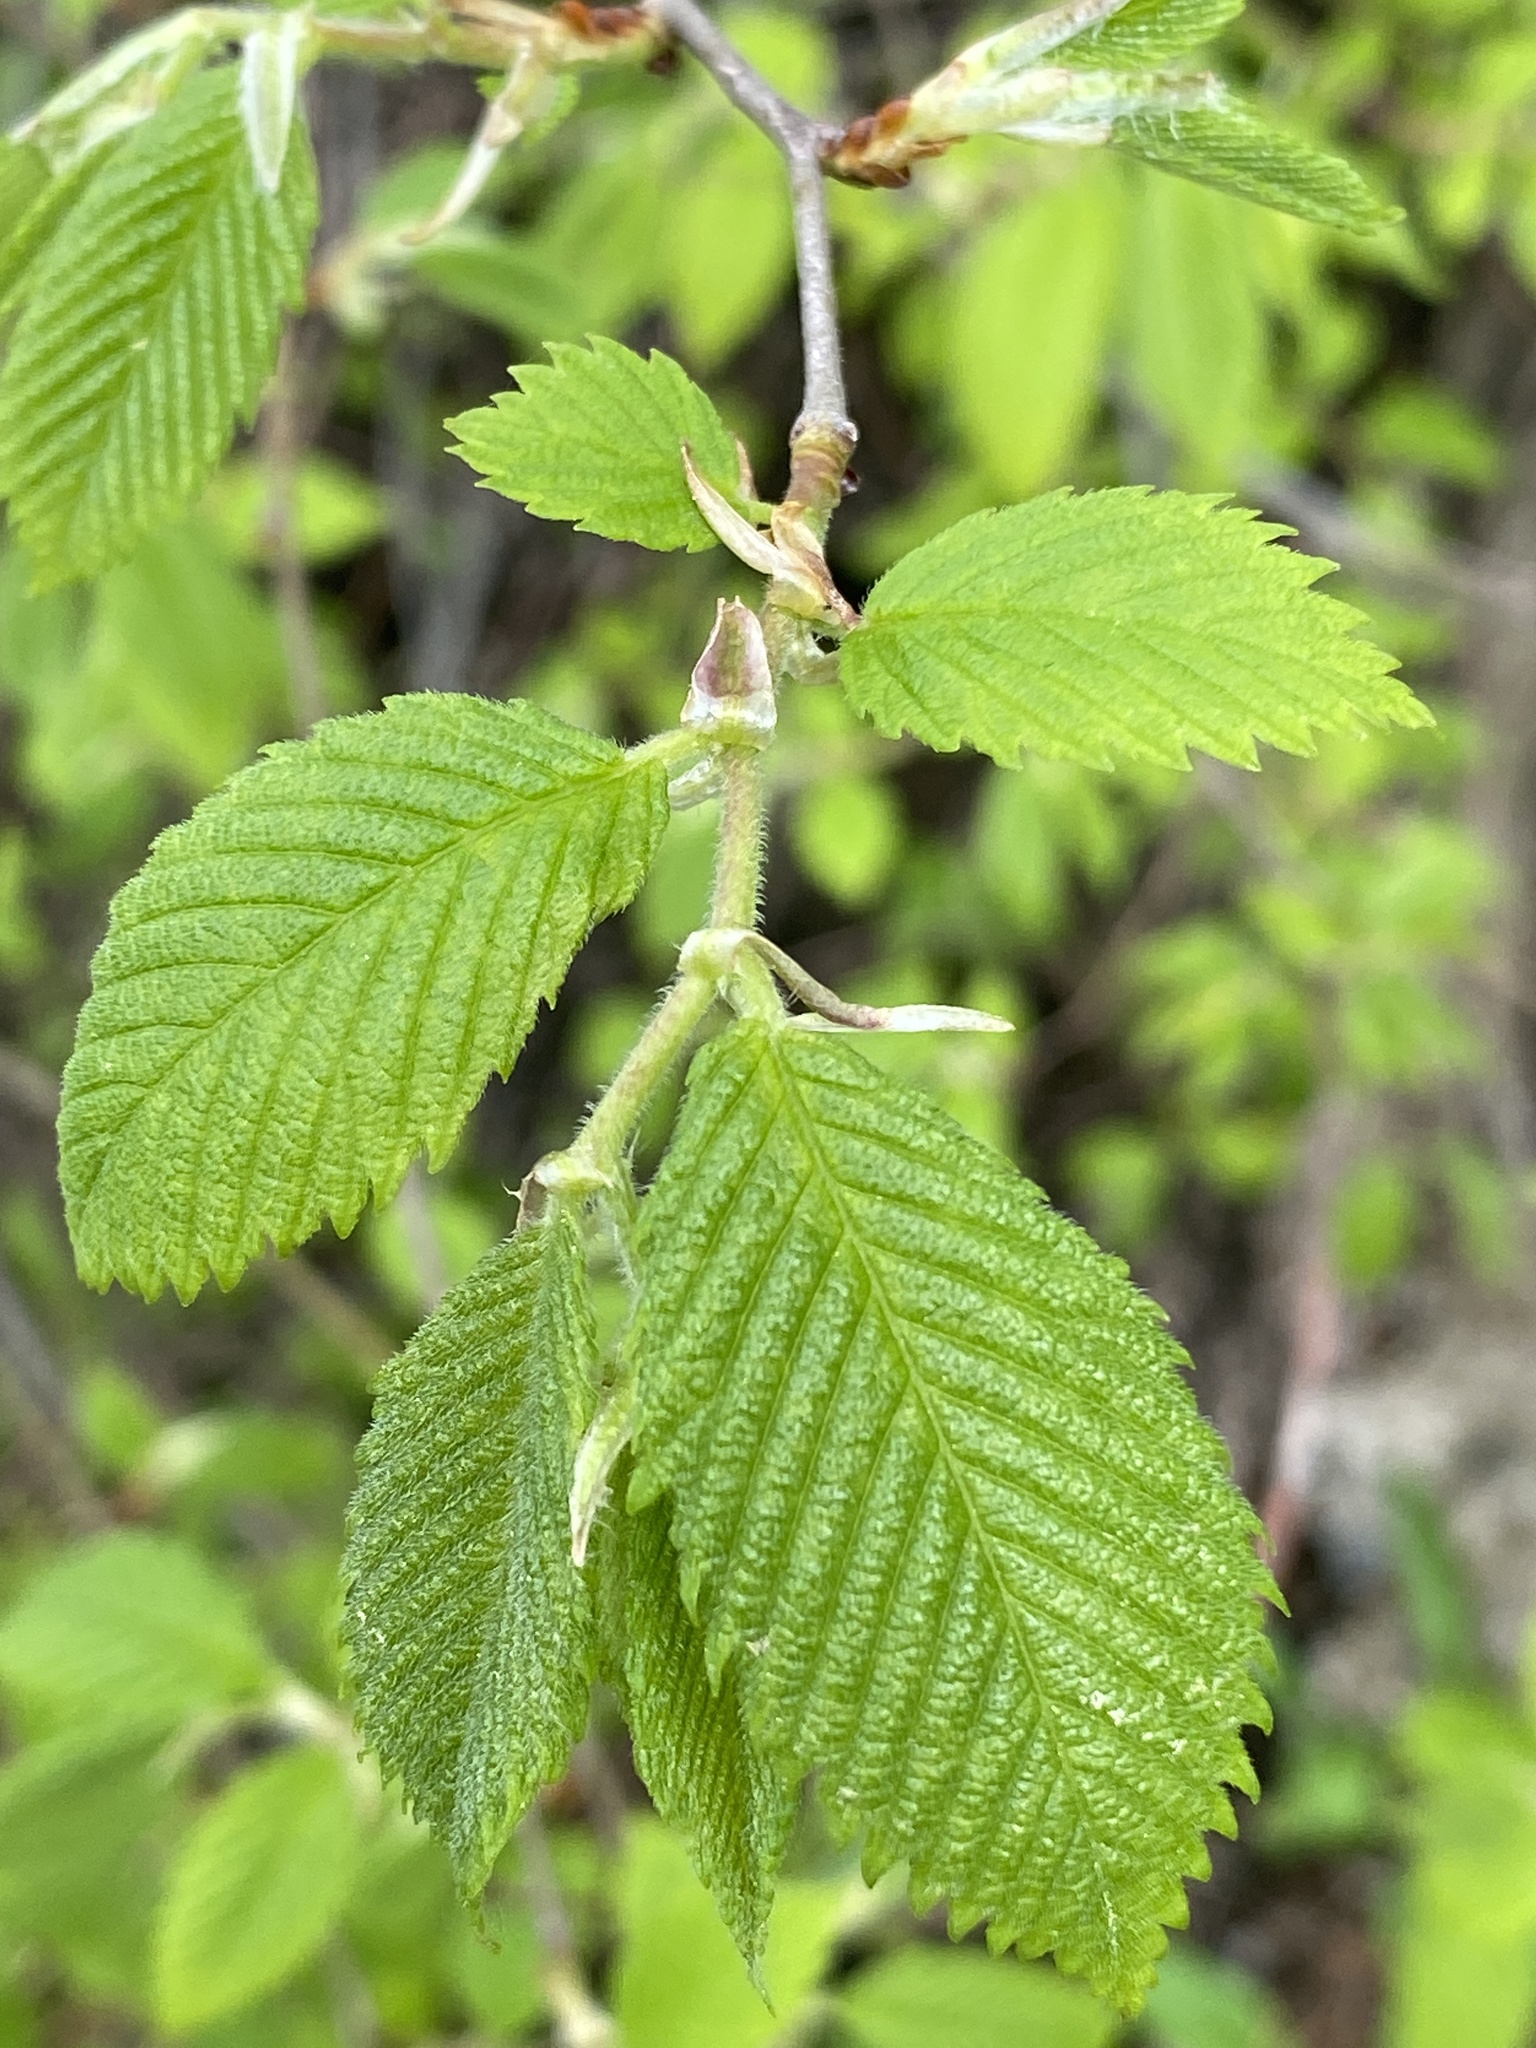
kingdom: Plantae
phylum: Tracheophyta
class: Magnoliopsida
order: Rosales
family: Ulmaceae
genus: Ulmus
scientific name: Ulmus americana
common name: American elm
